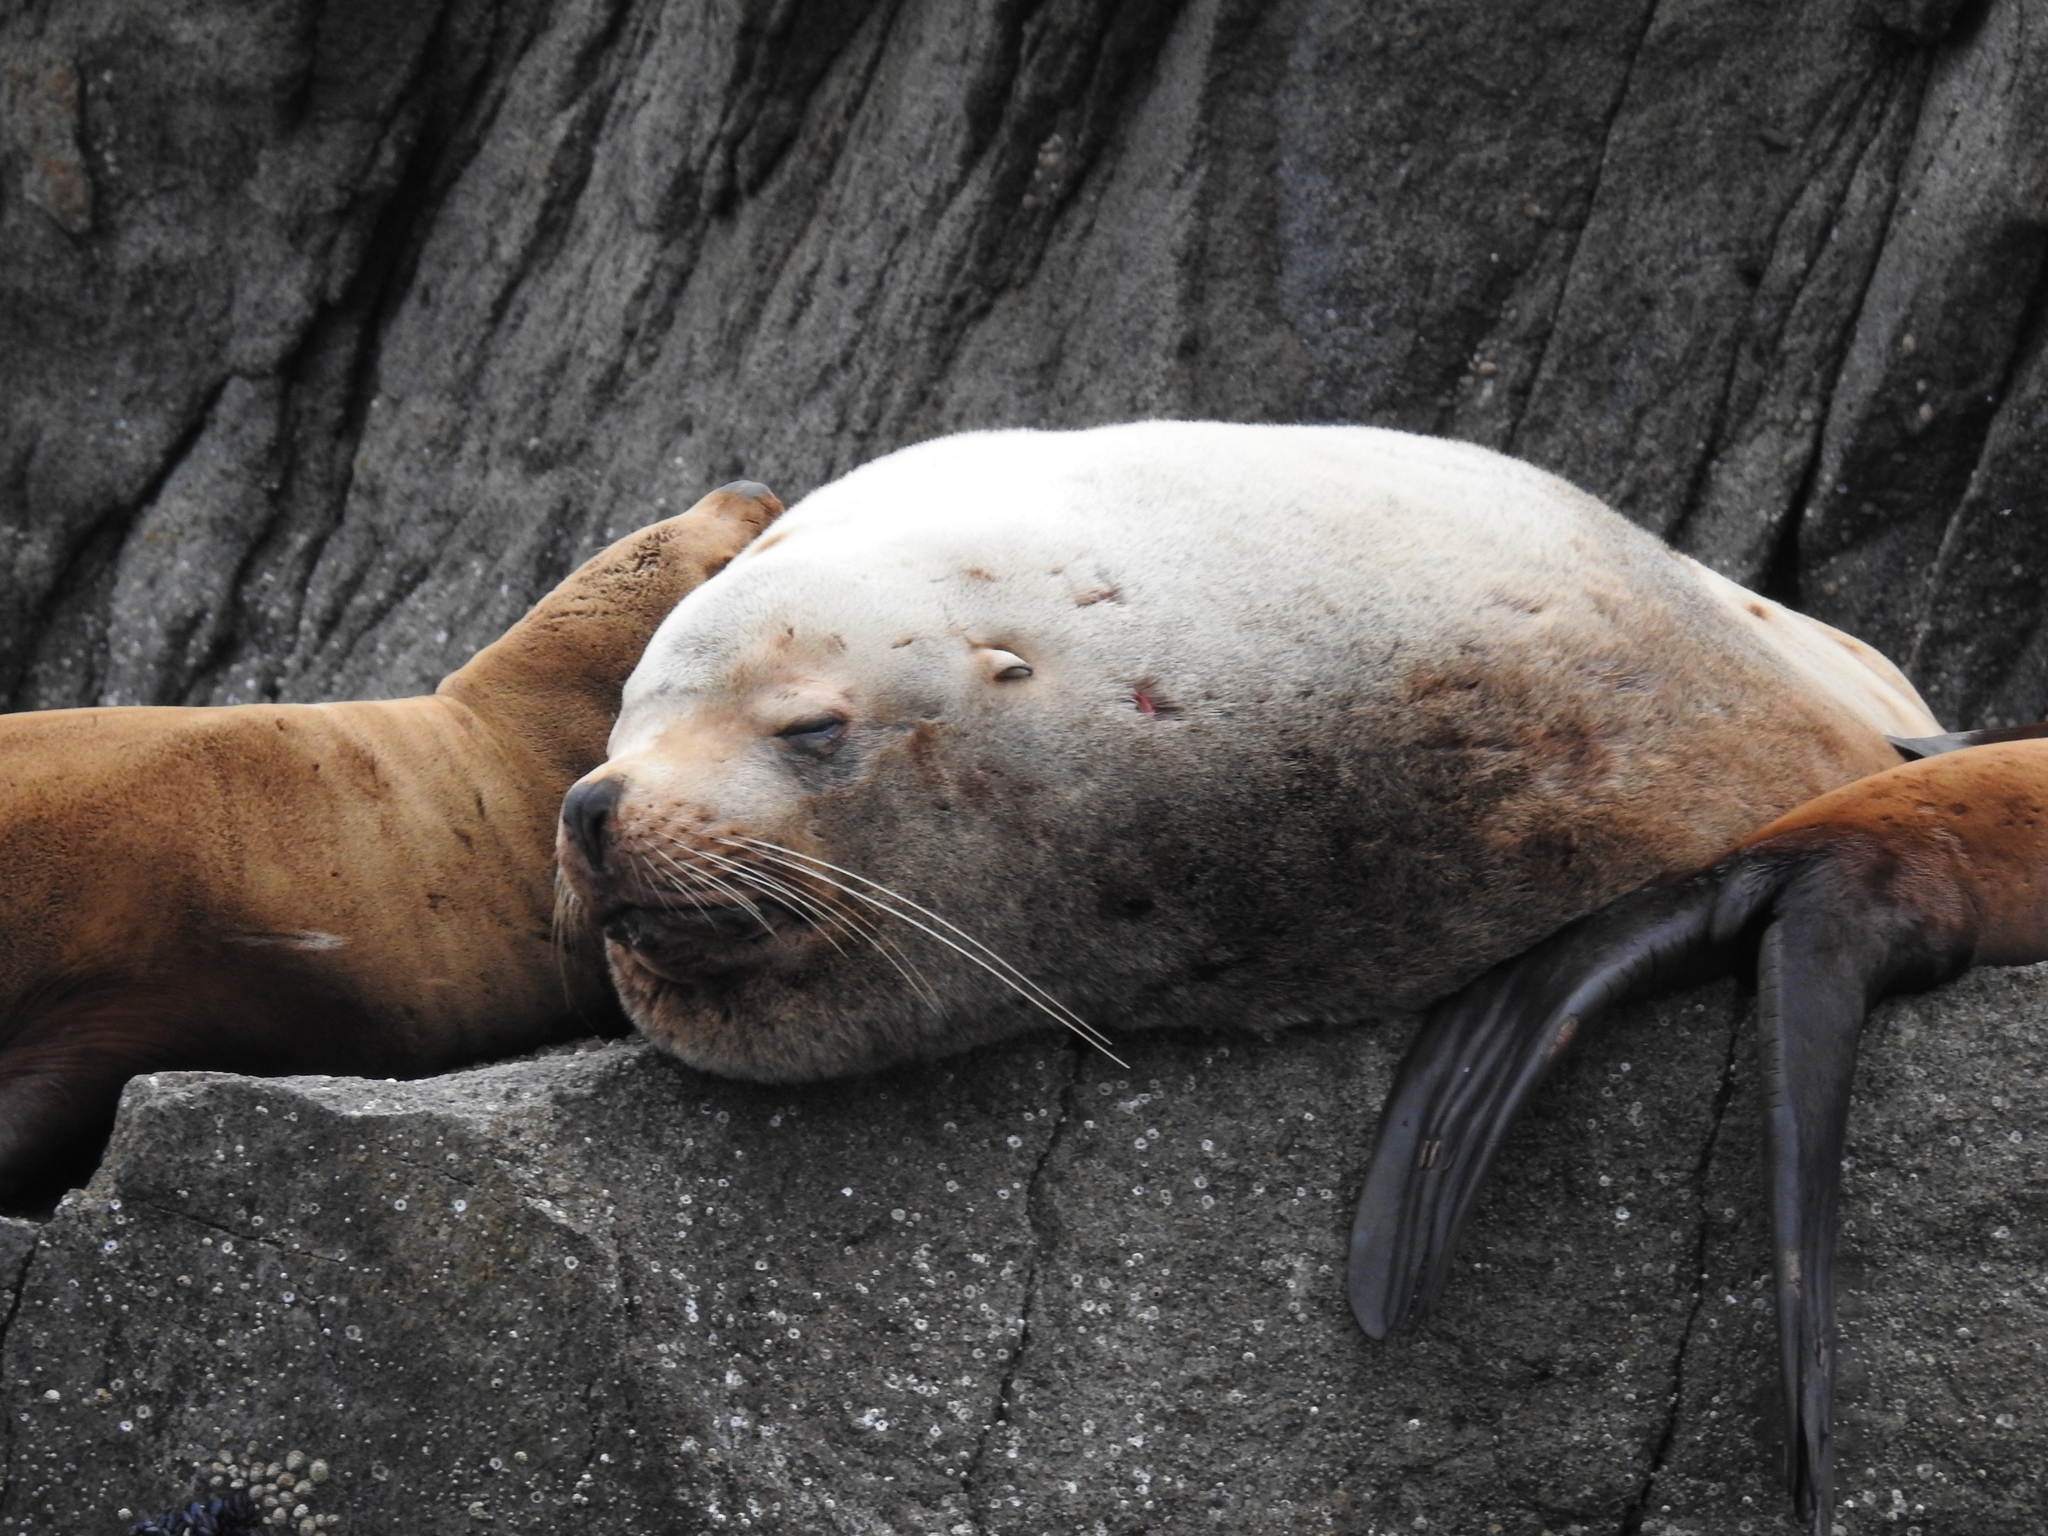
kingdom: Animalia
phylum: Chordata
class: Mammalia
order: Carnivora
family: Otariidae
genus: Eumetopias
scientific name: Eumetopias jubatus
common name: Steller sea lion
